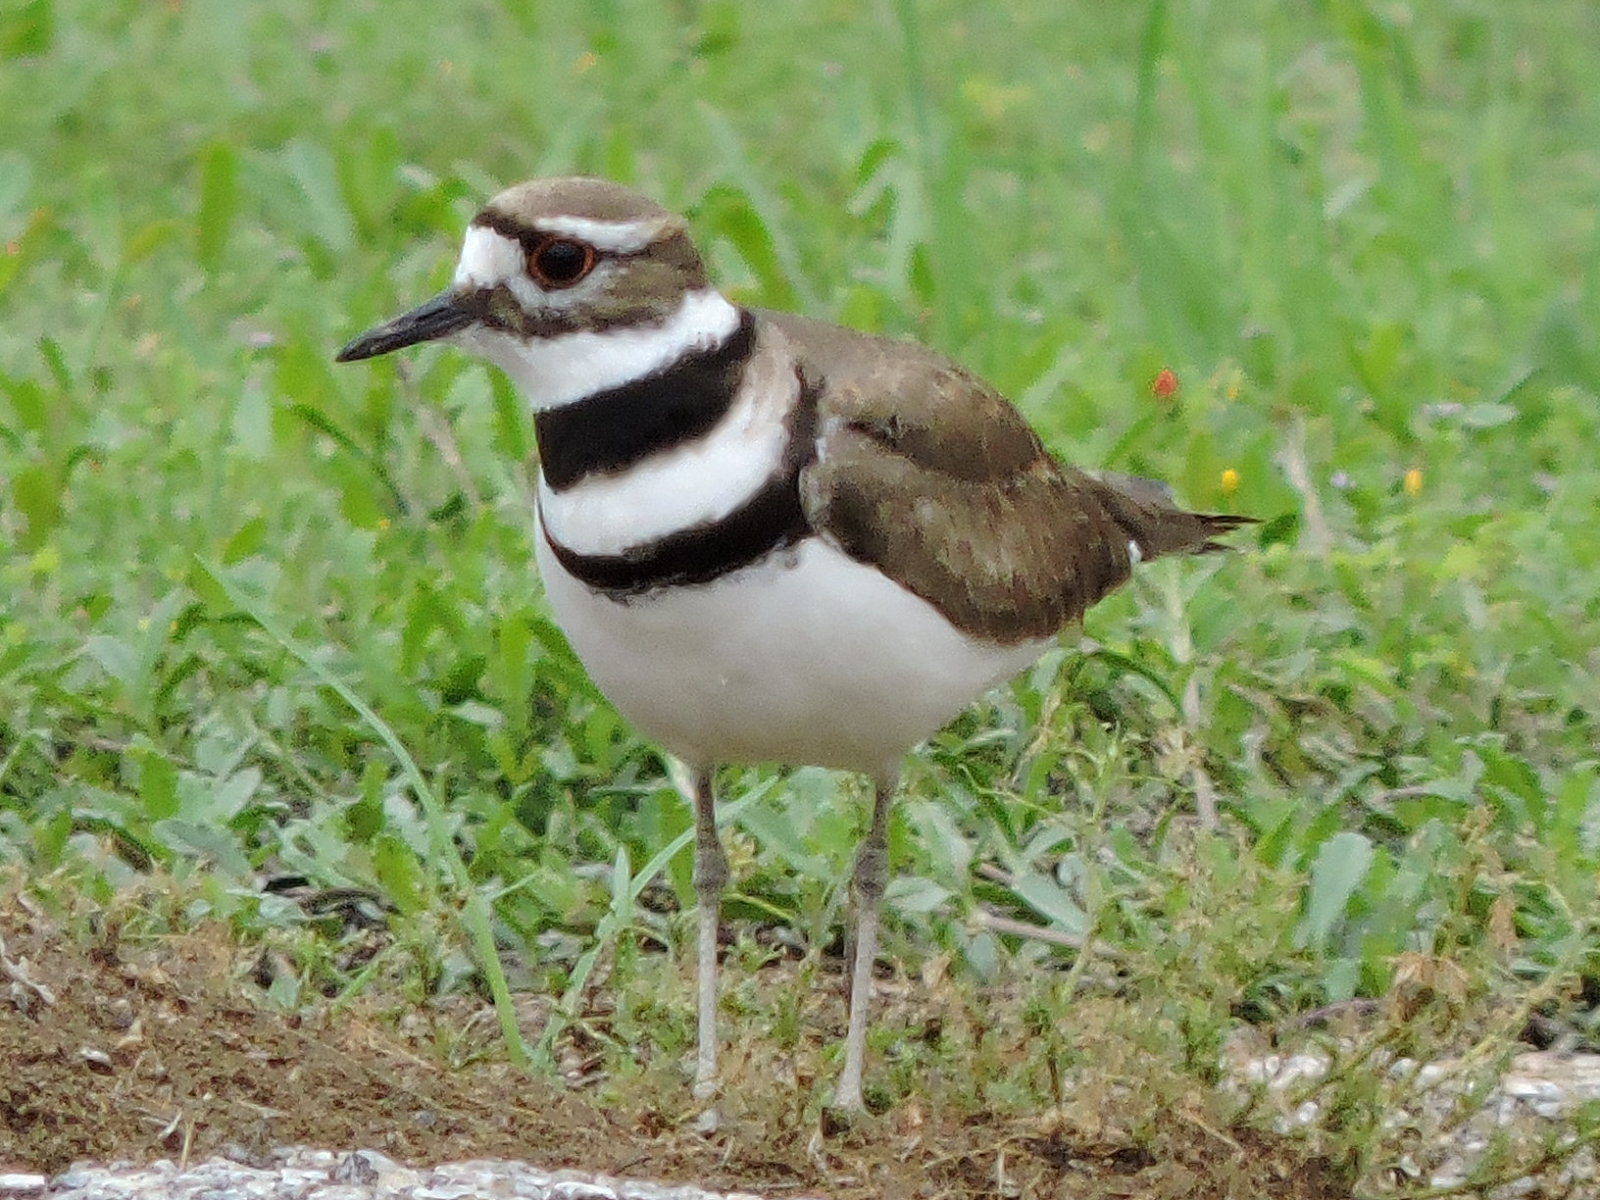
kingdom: Animalia
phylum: Chordata
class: Aves
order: Charadriiformes
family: Charadriidae
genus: Charadrius
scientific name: Charadrius vociferus
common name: Killdeer
